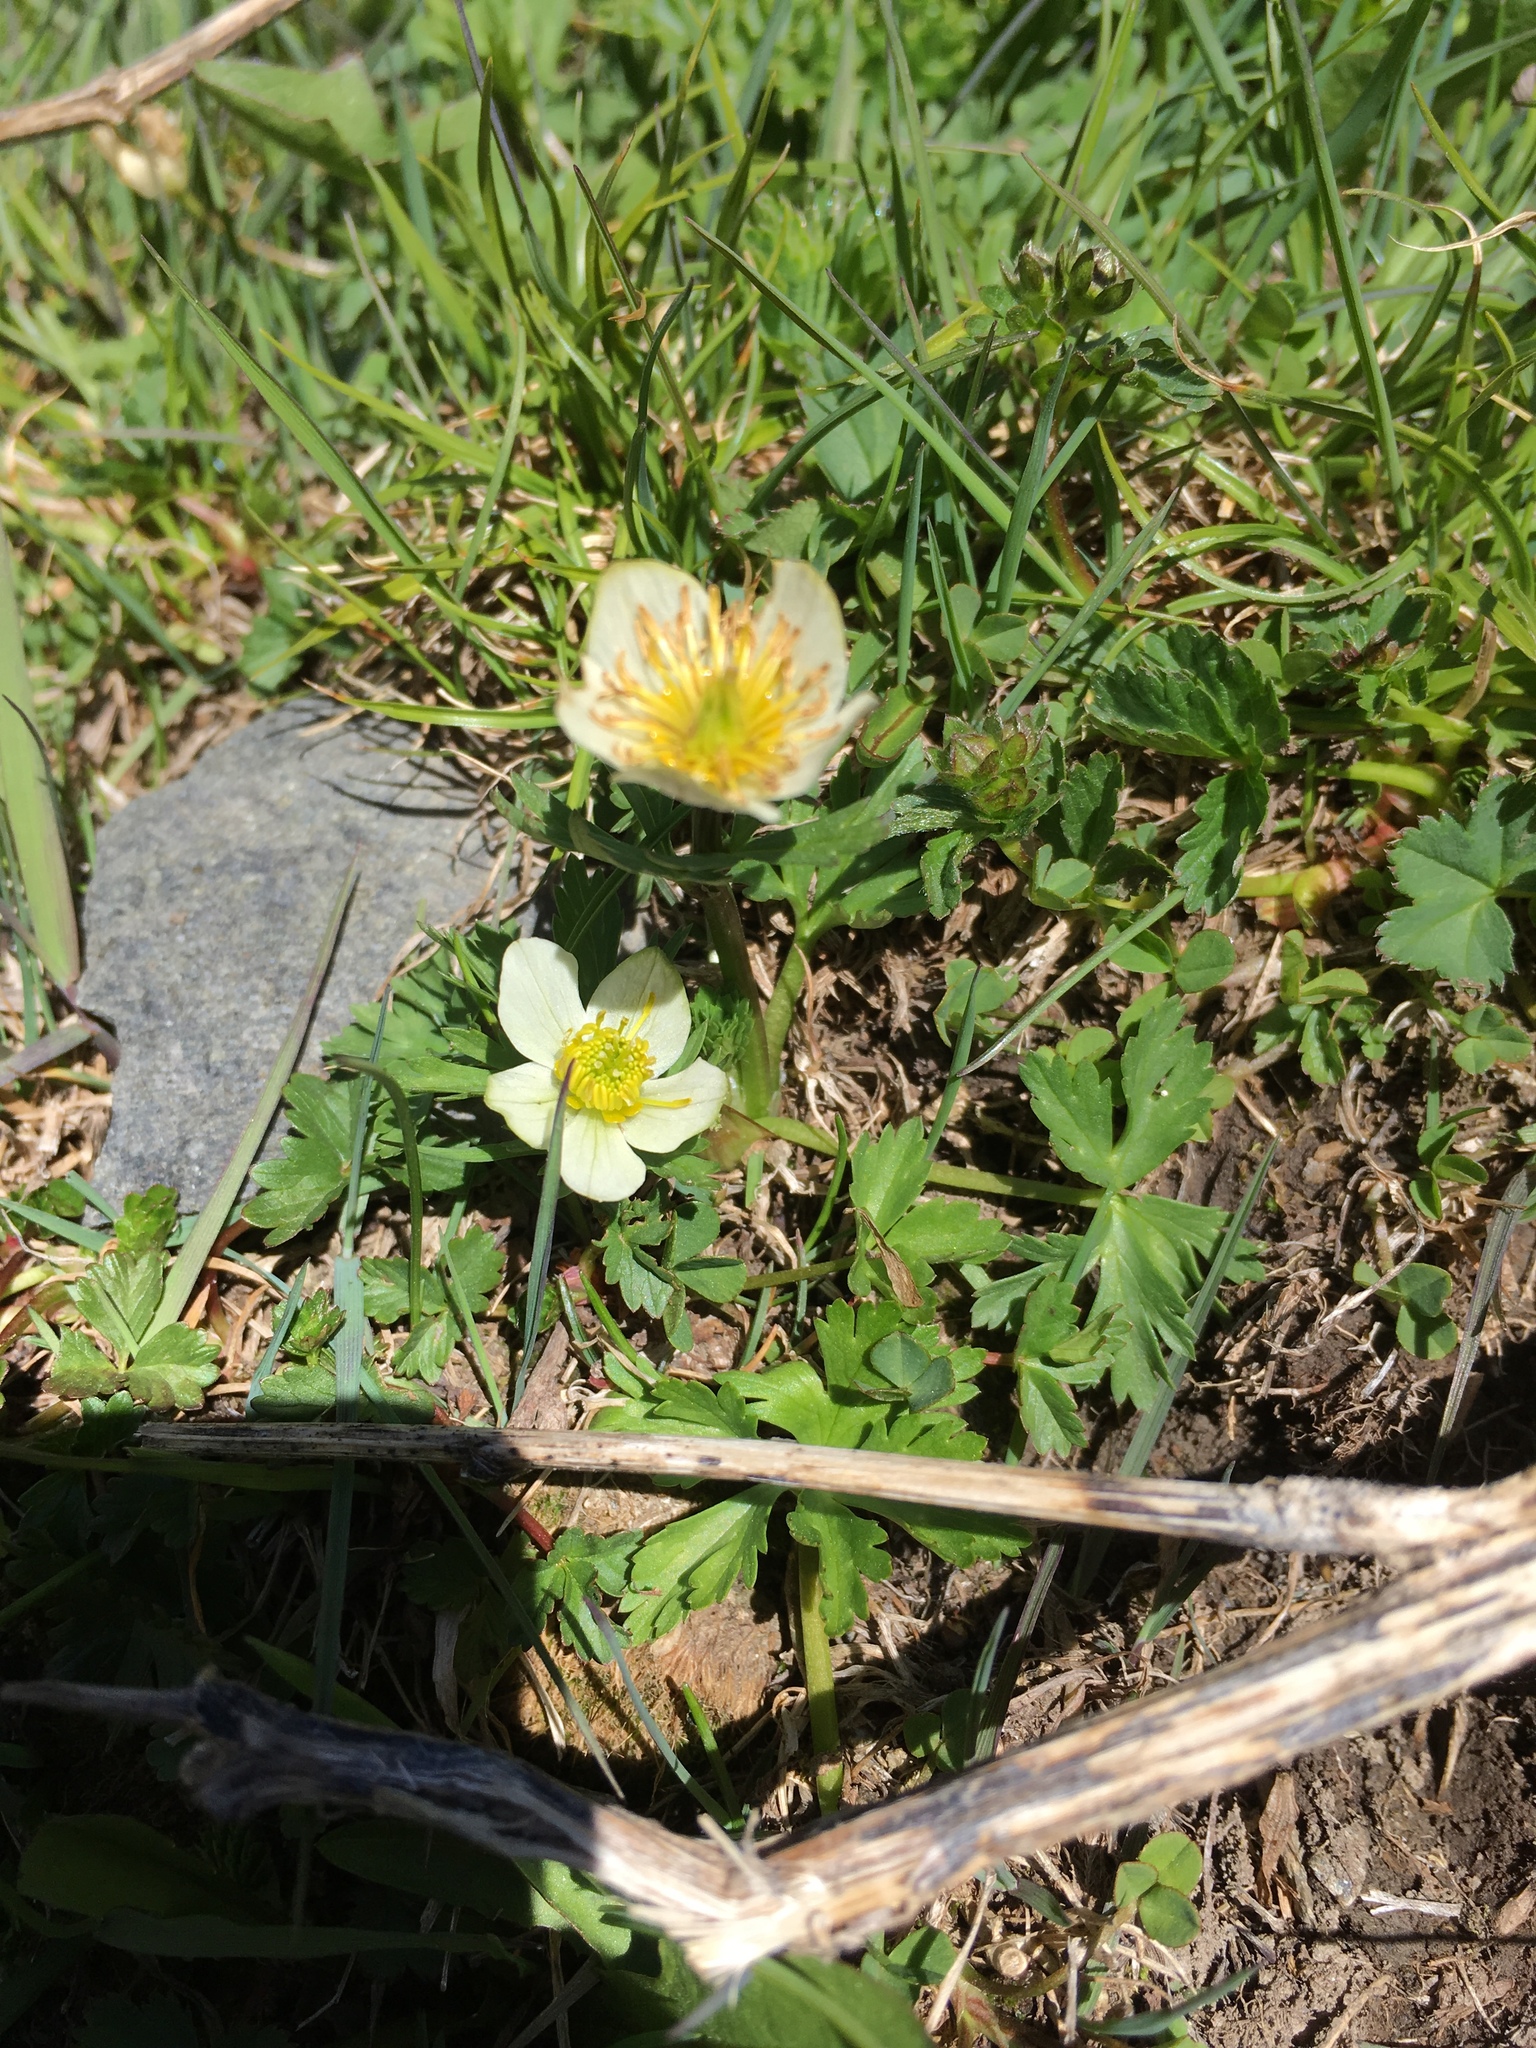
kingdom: Plantae
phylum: Tracheophyta
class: Magnoliopsida
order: Ranunculales
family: Ranunculaceae
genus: Trollius
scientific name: Trollius komarovii
